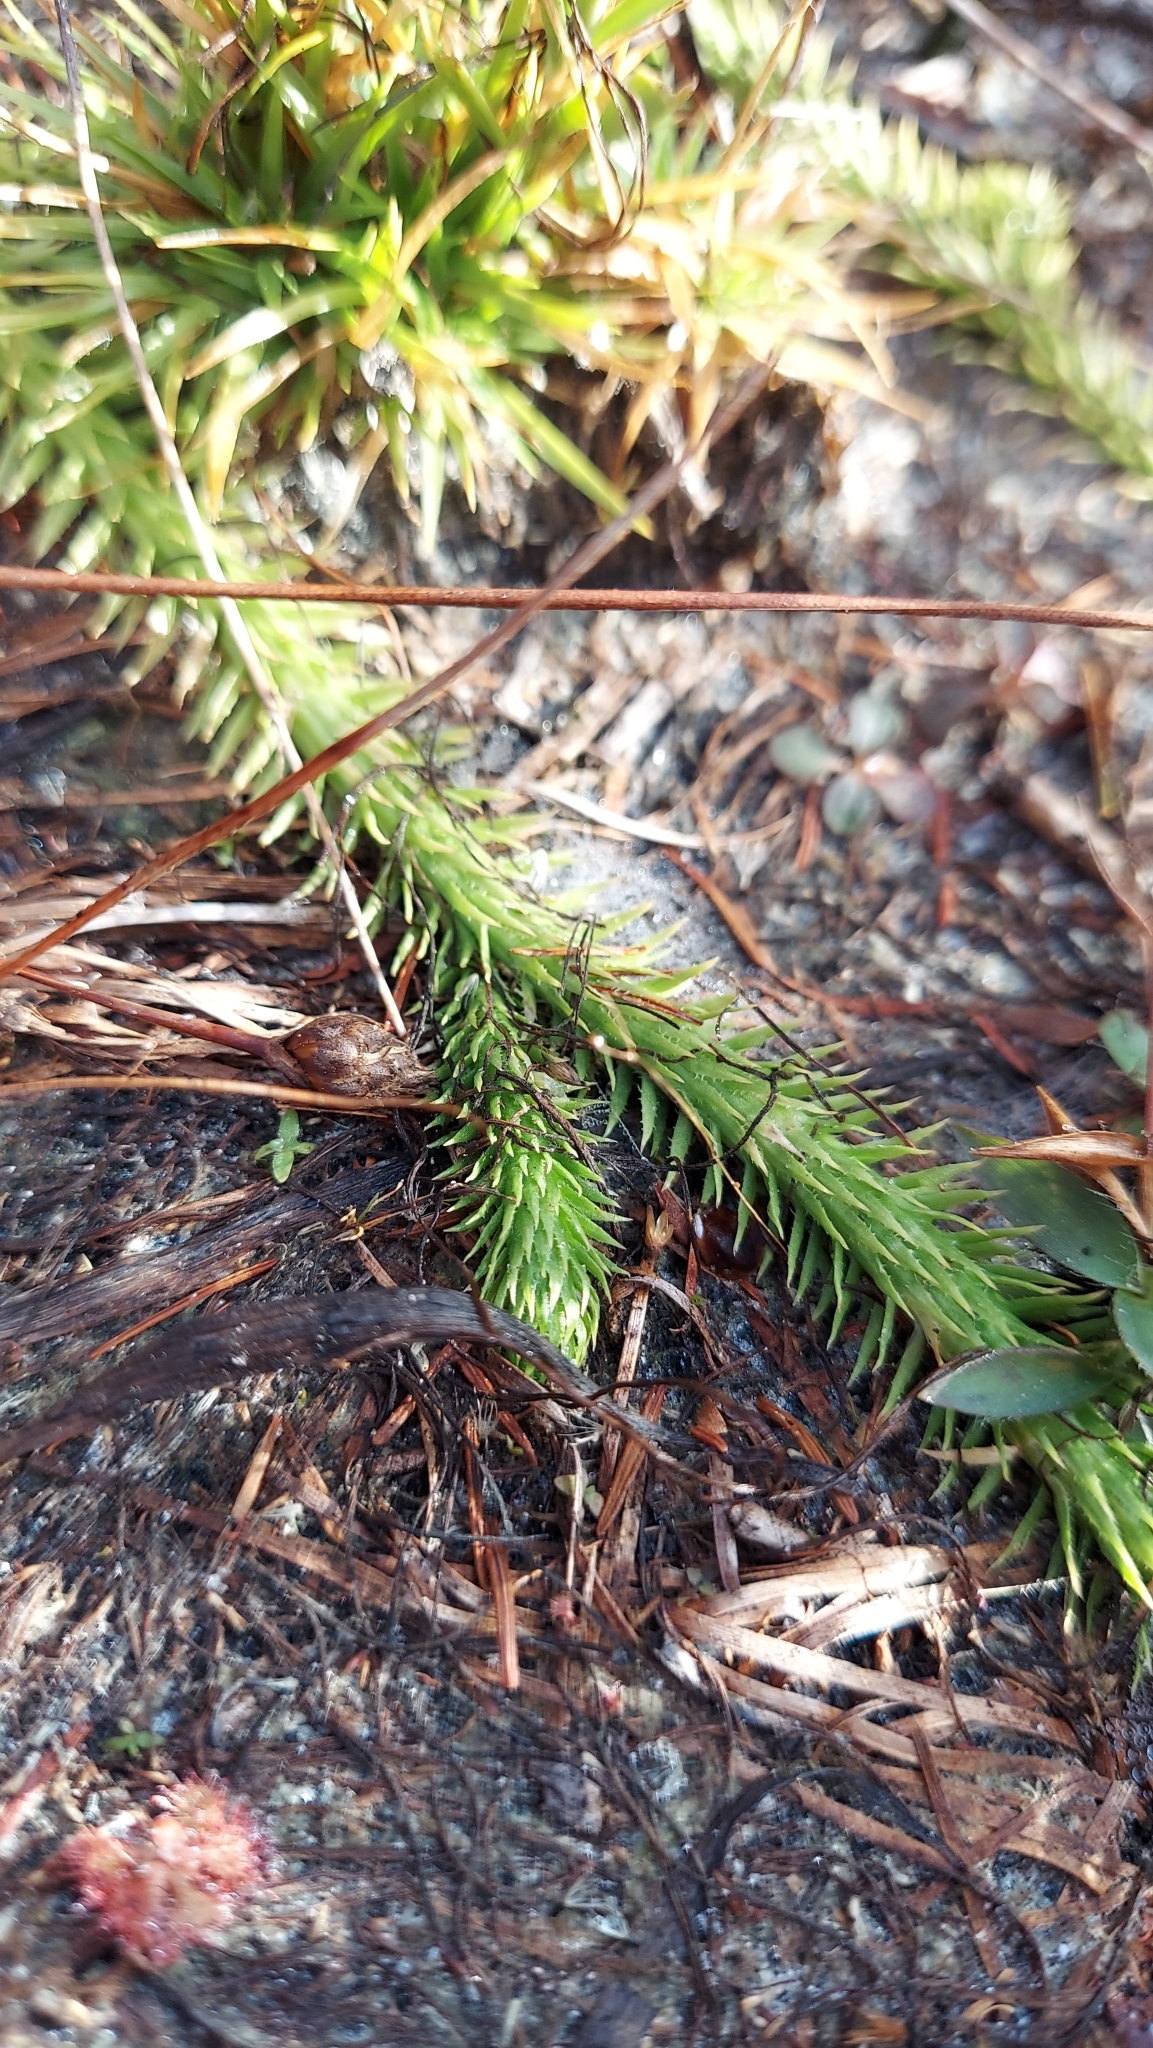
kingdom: Plantae
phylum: Tracheophyta
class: Lycopodiopsida
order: Lycopodiales
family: Lycopodiaceae
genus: Lycopodiella
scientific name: Lycopodiella appressa
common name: Appressed bog clubmoss
